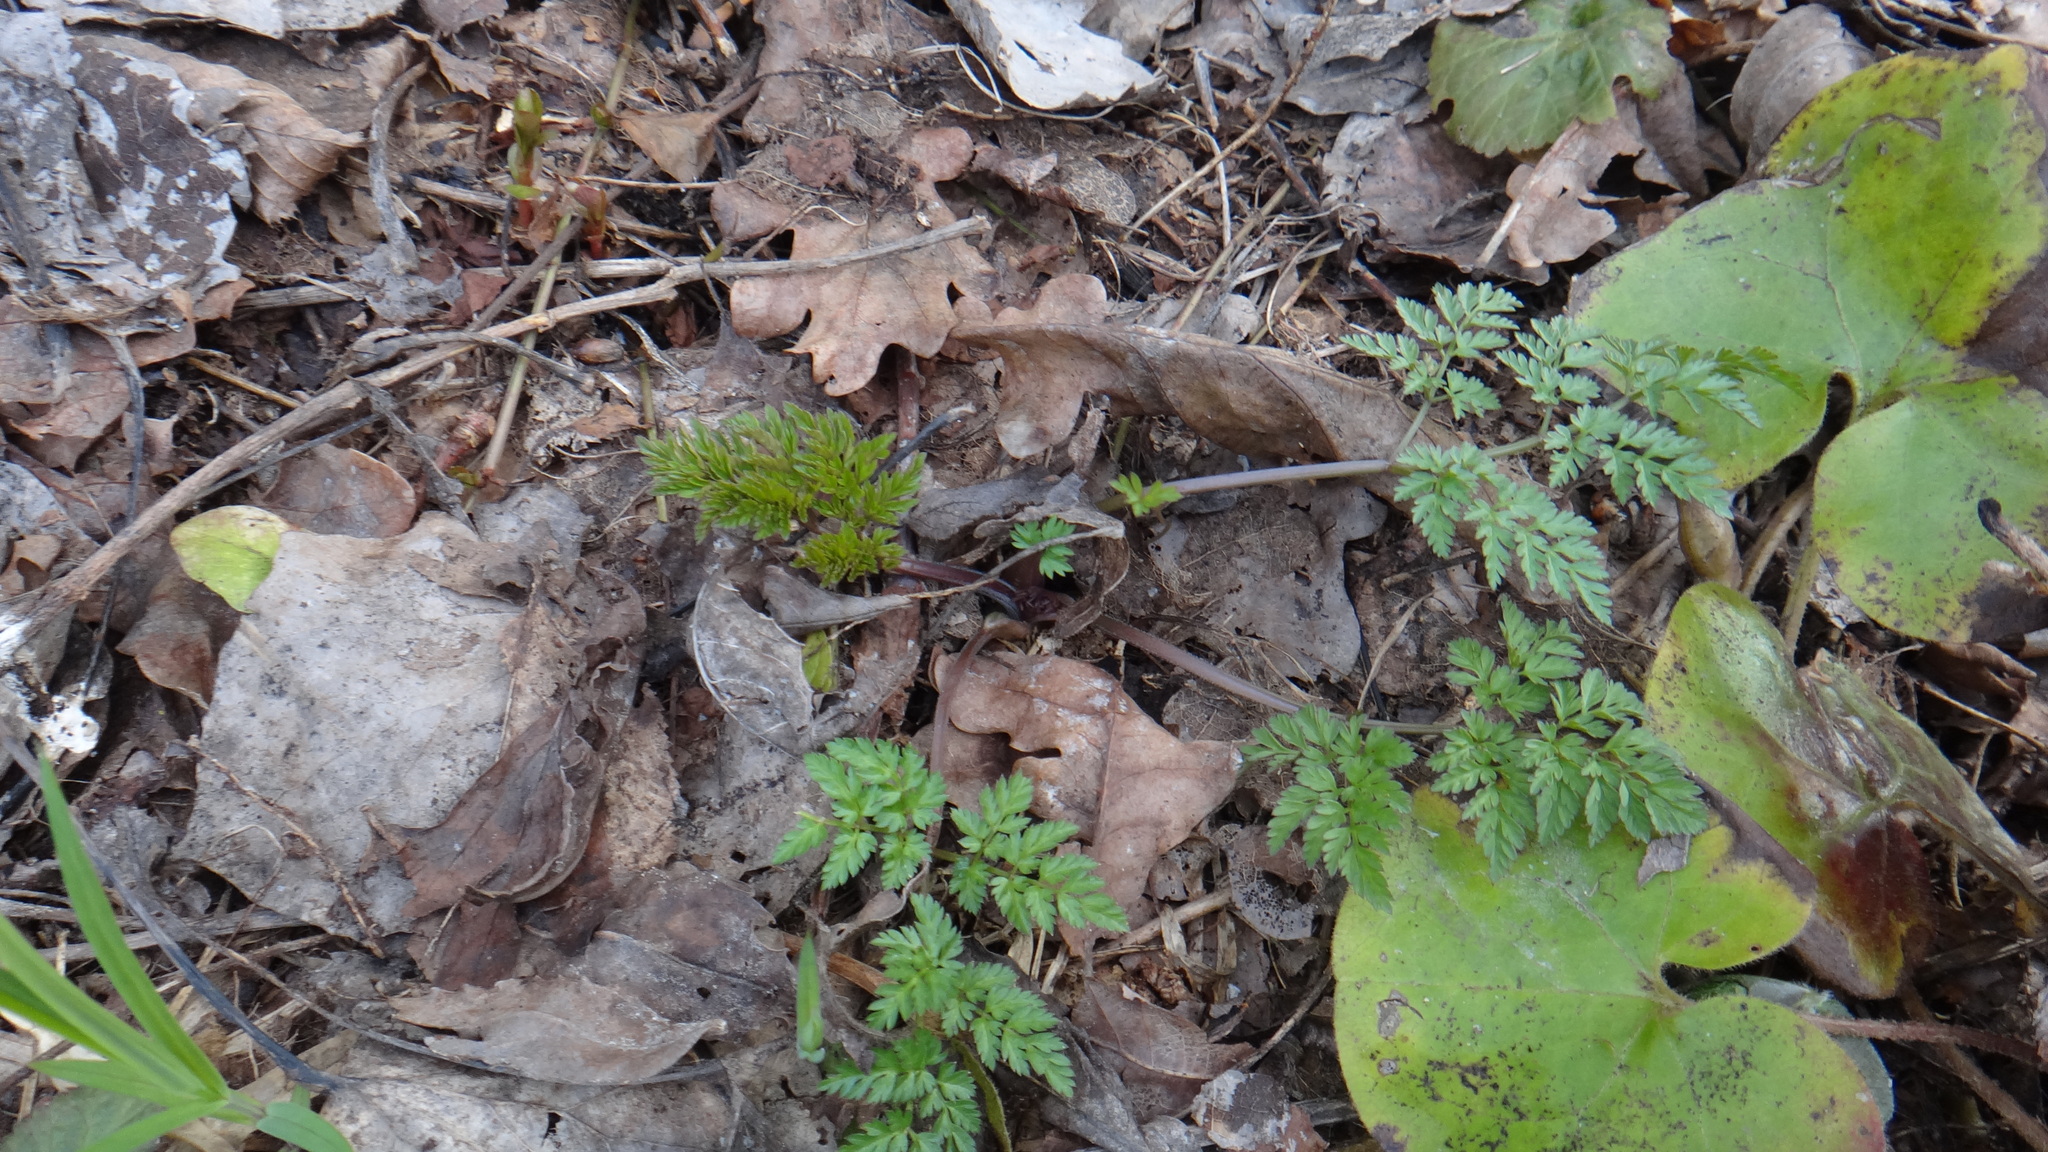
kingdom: Plantae
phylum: Tracheophyta
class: Magnoliopsida
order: Apiales
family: Apiaceae
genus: Anthriscus
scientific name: Anthriscus sylvestris
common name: Cow parsley
